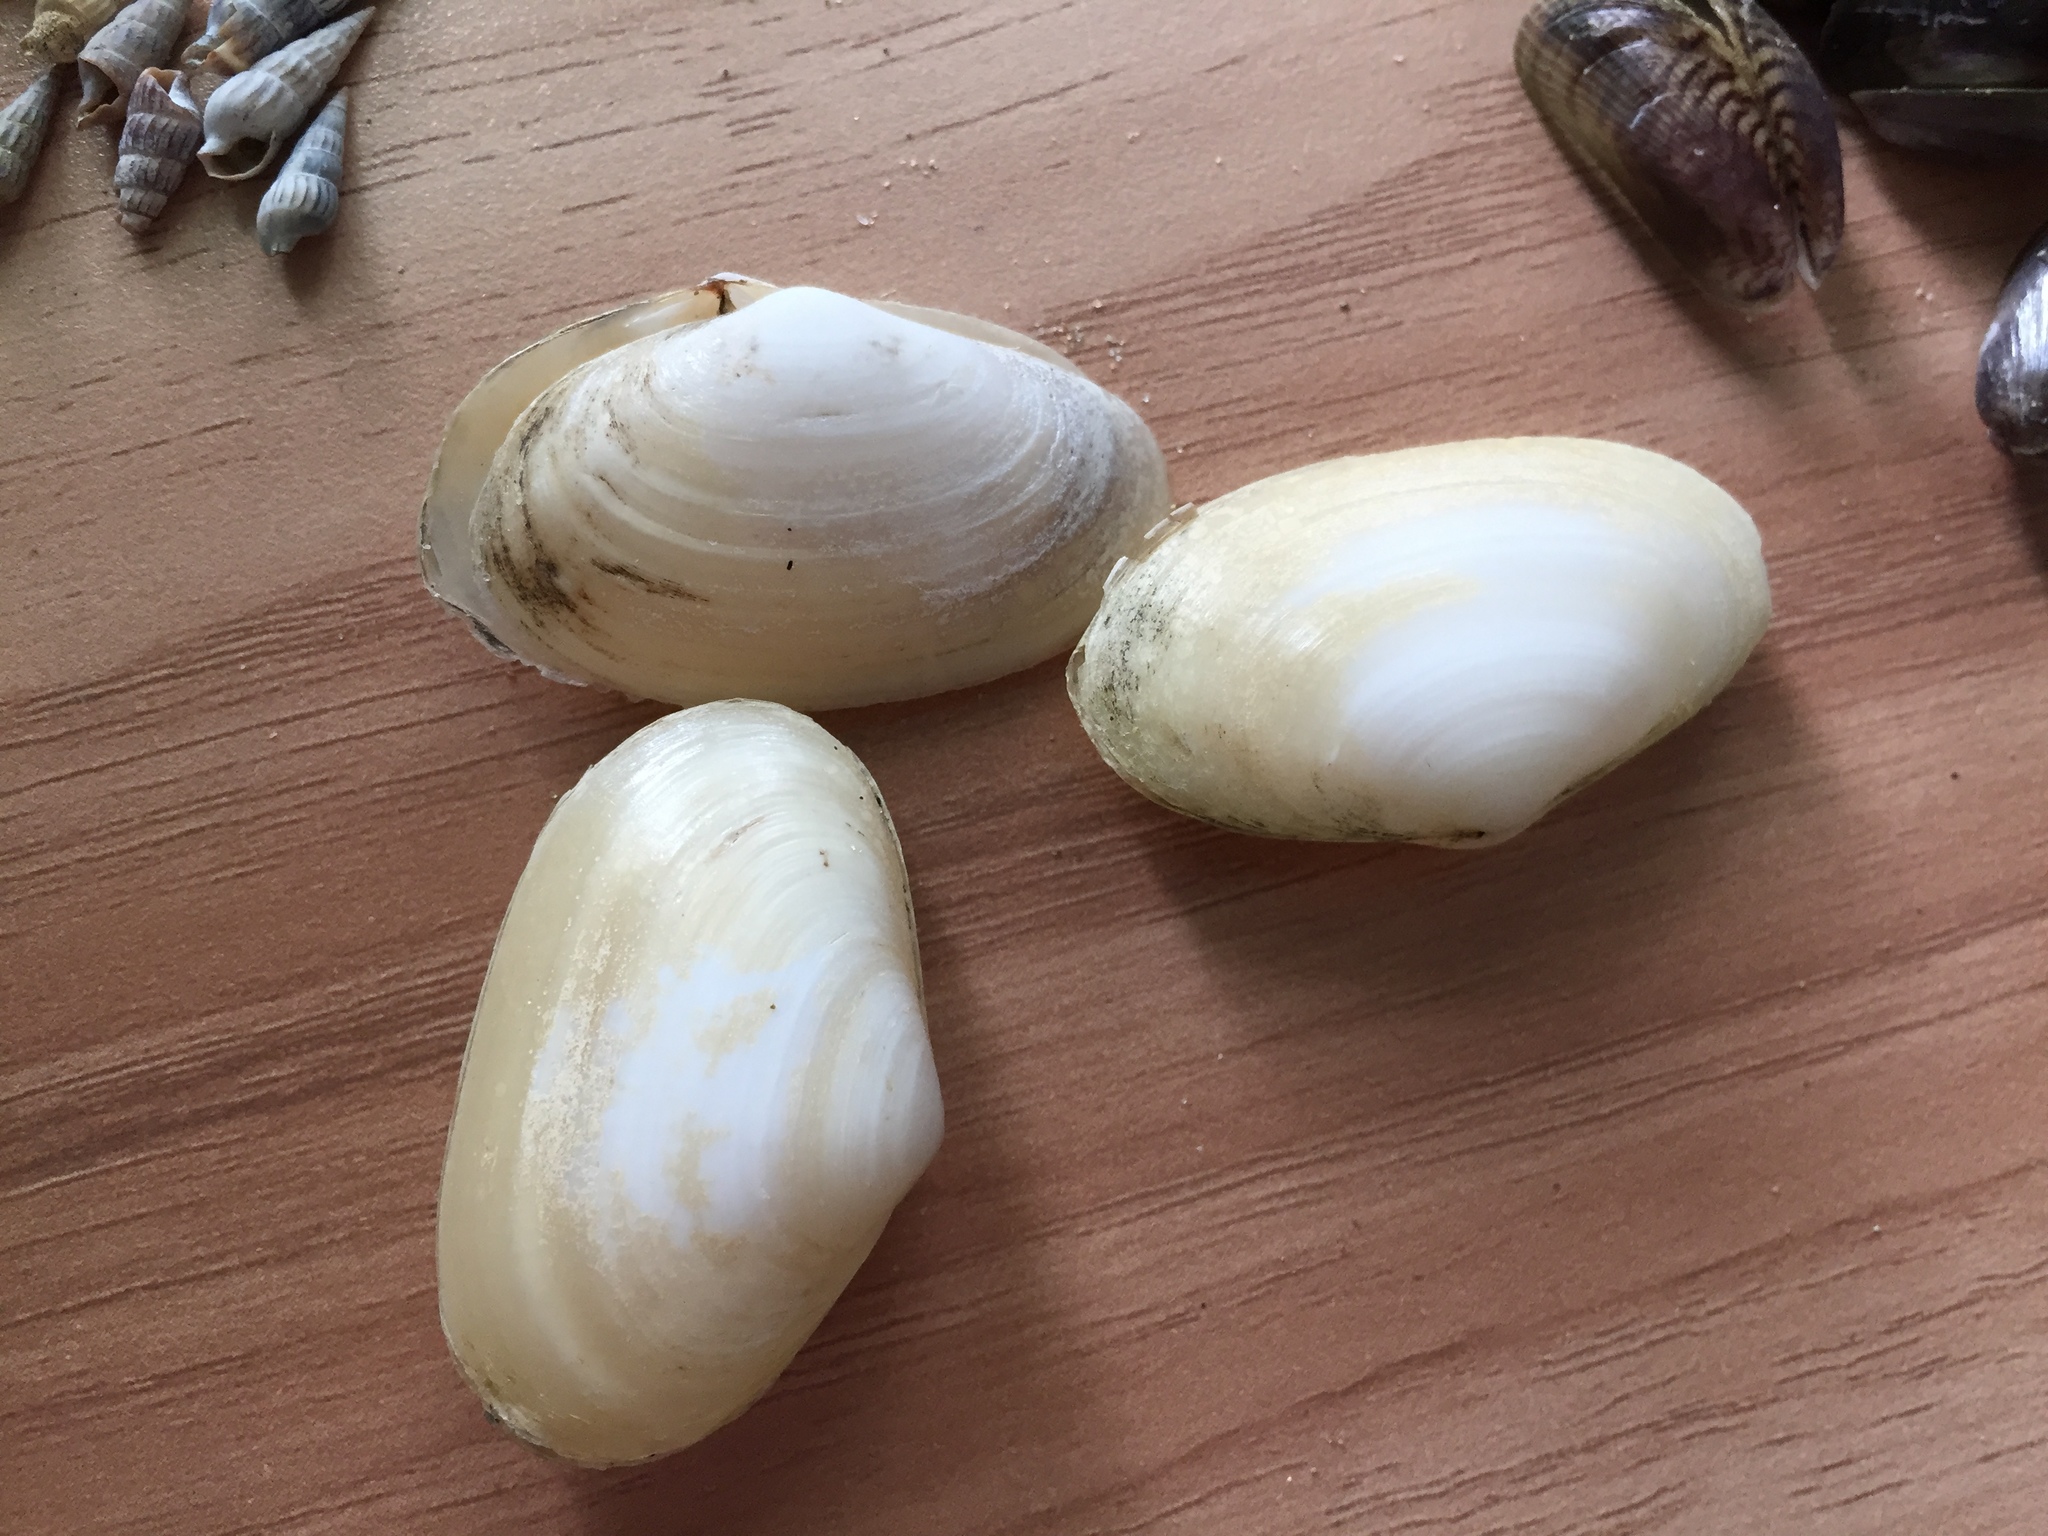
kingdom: Animalia
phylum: Mollusca
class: Bivalvia
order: Venerida
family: Mesodesmatidae
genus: Paphies
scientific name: Paphies australis
